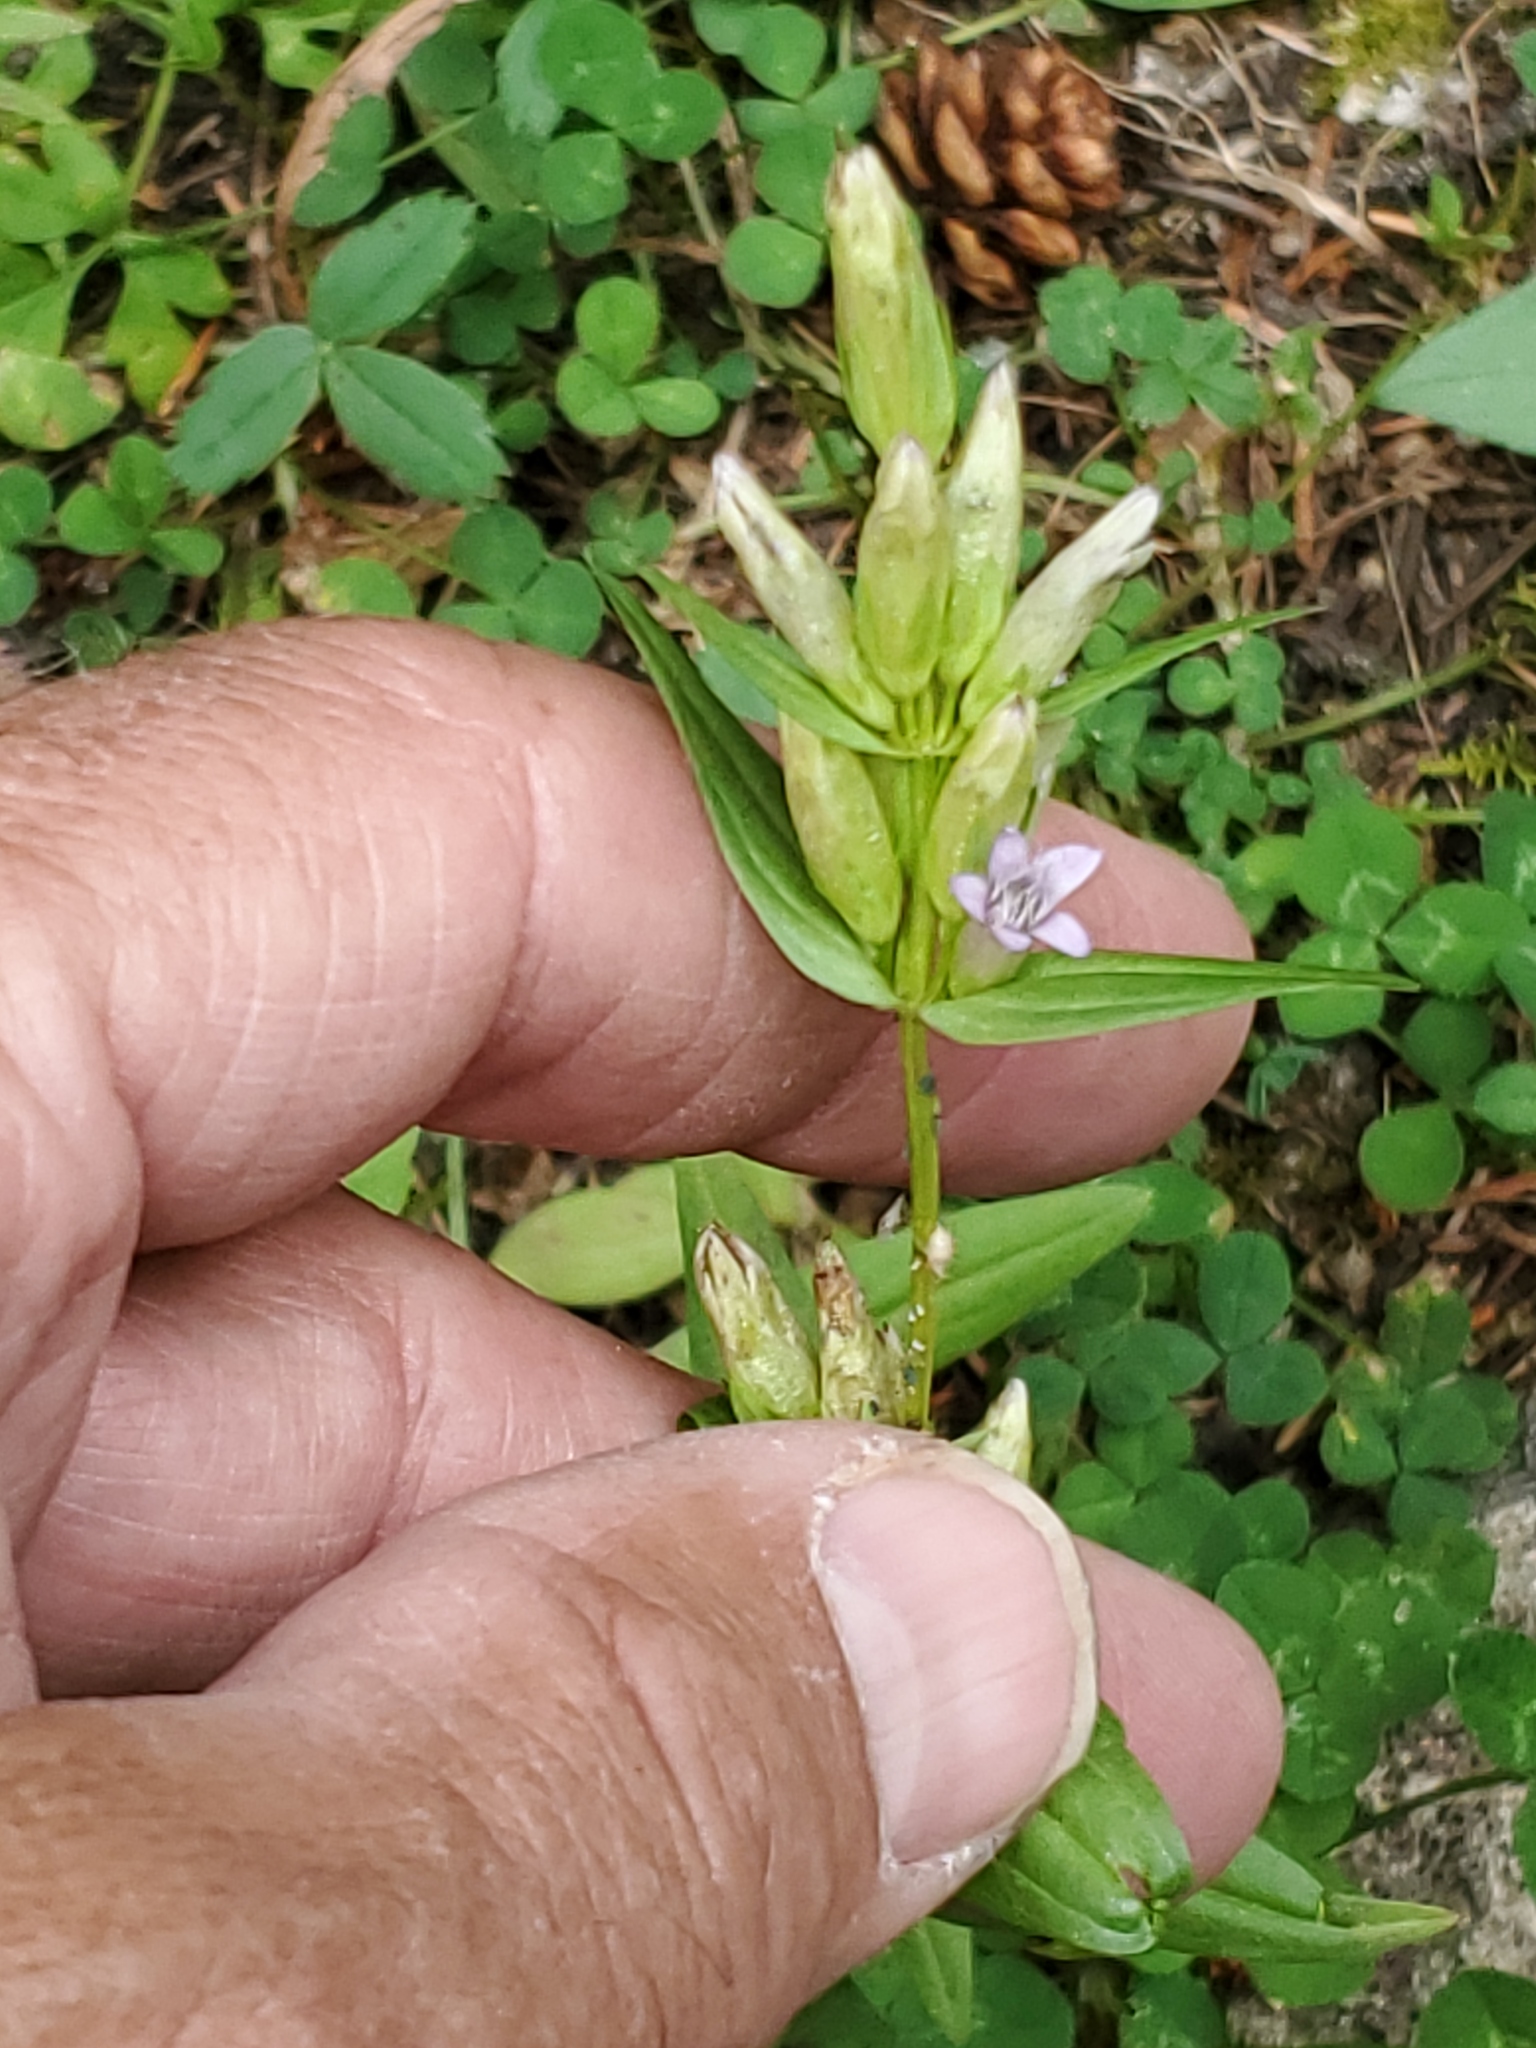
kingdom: Plantae
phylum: Tracheophyta
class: Magnoliopsida
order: Gentianales
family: Gentianaceae
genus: Gentianella
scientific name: Gentianella amarella
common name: Autumn gentian
